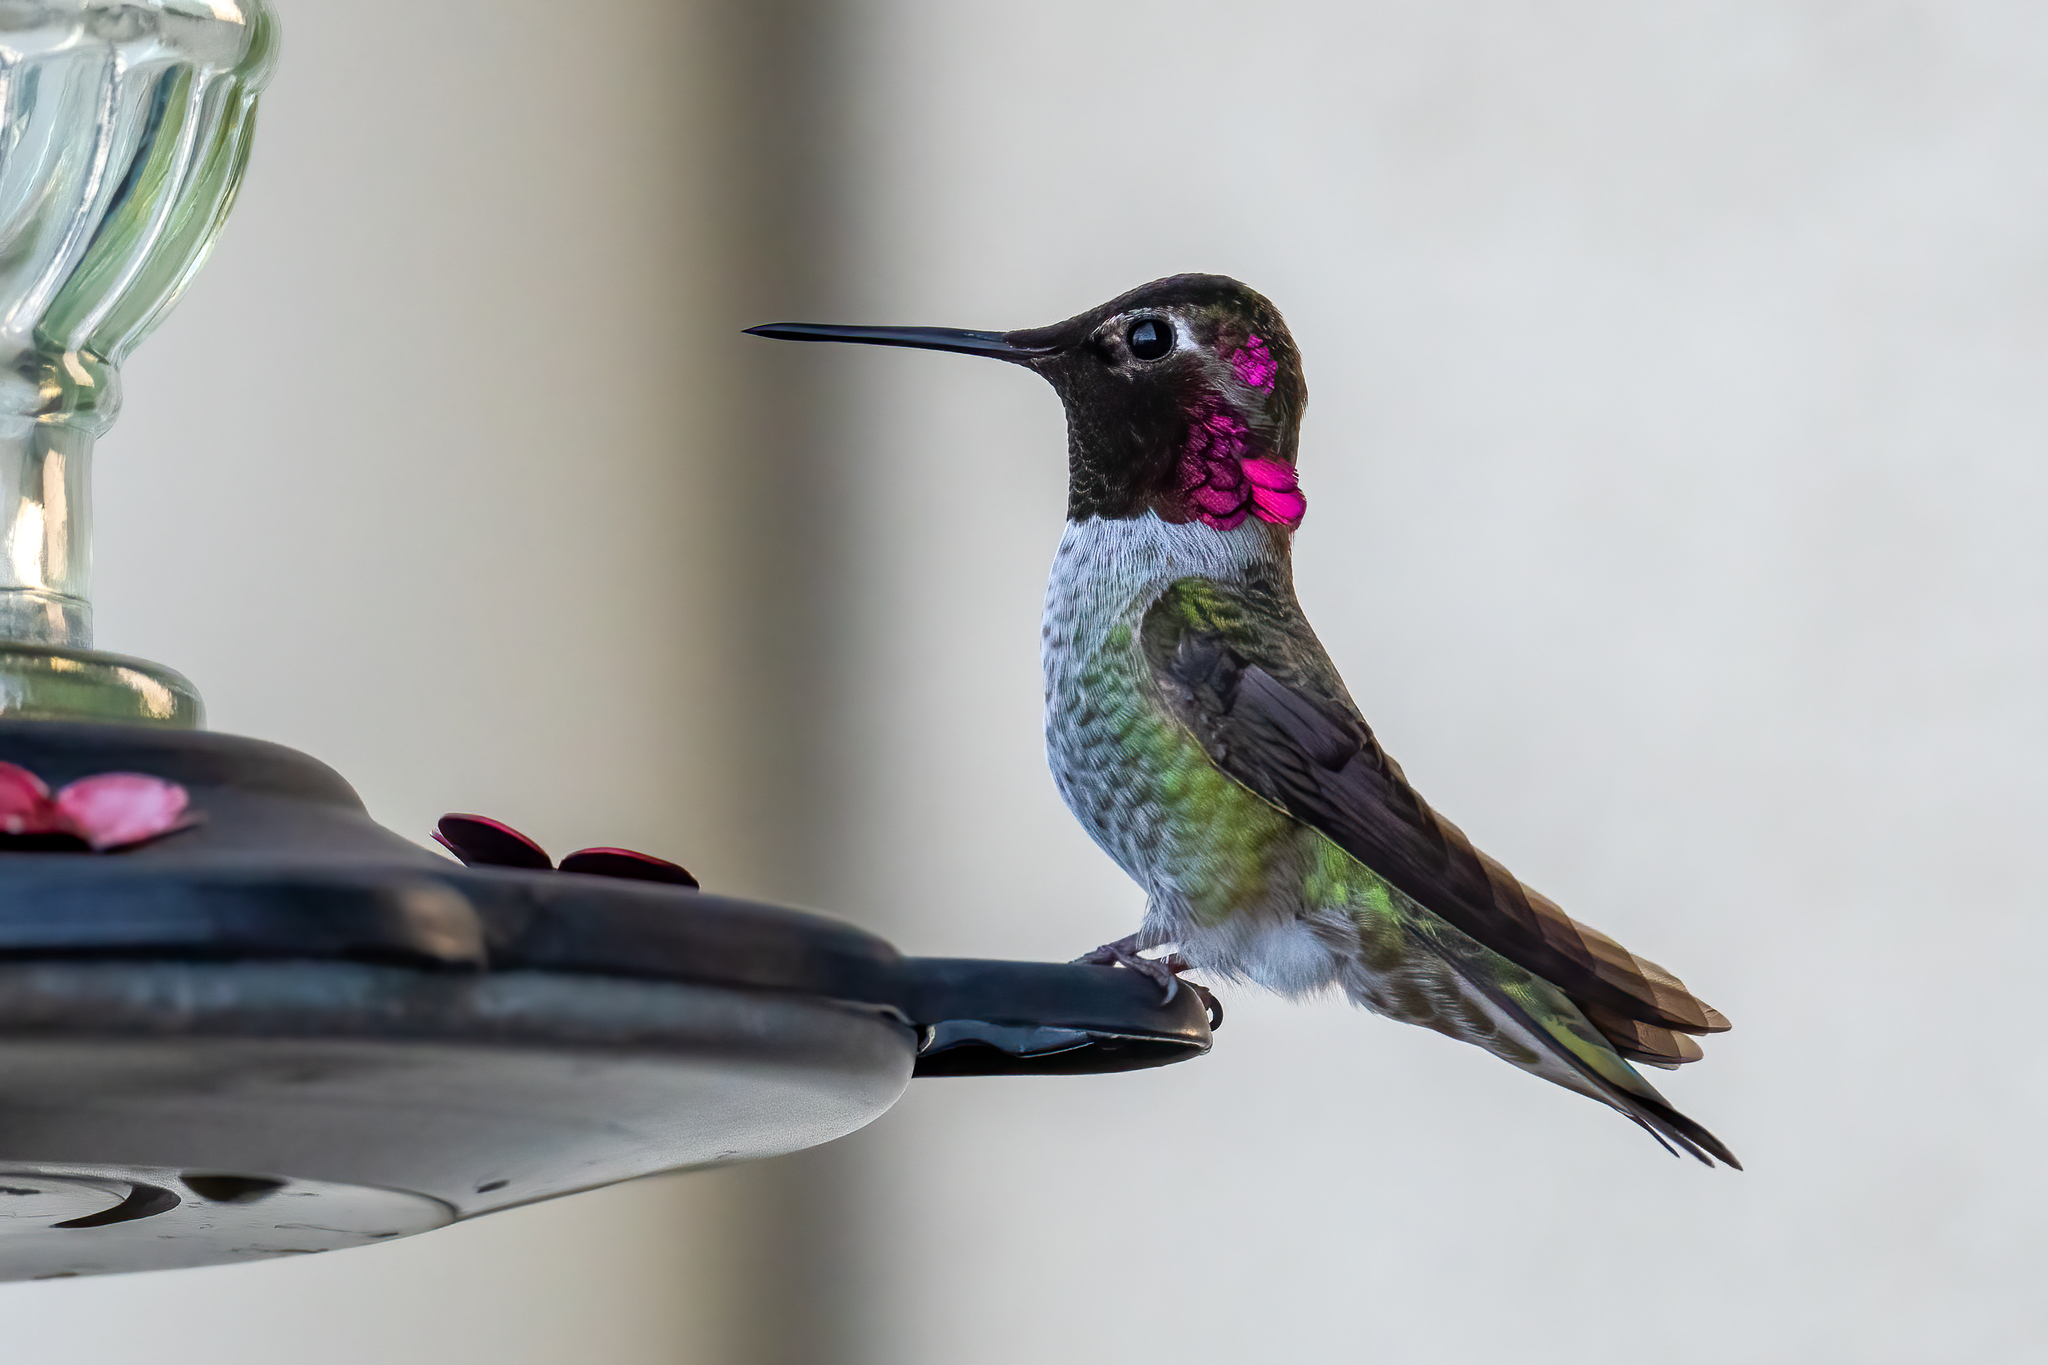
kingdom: Animalia
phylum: Chordata
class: Aves
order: Apodiformes
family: Trochilidae
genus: Calypte
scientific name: Calypte anna
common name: Anna's hummingbird
